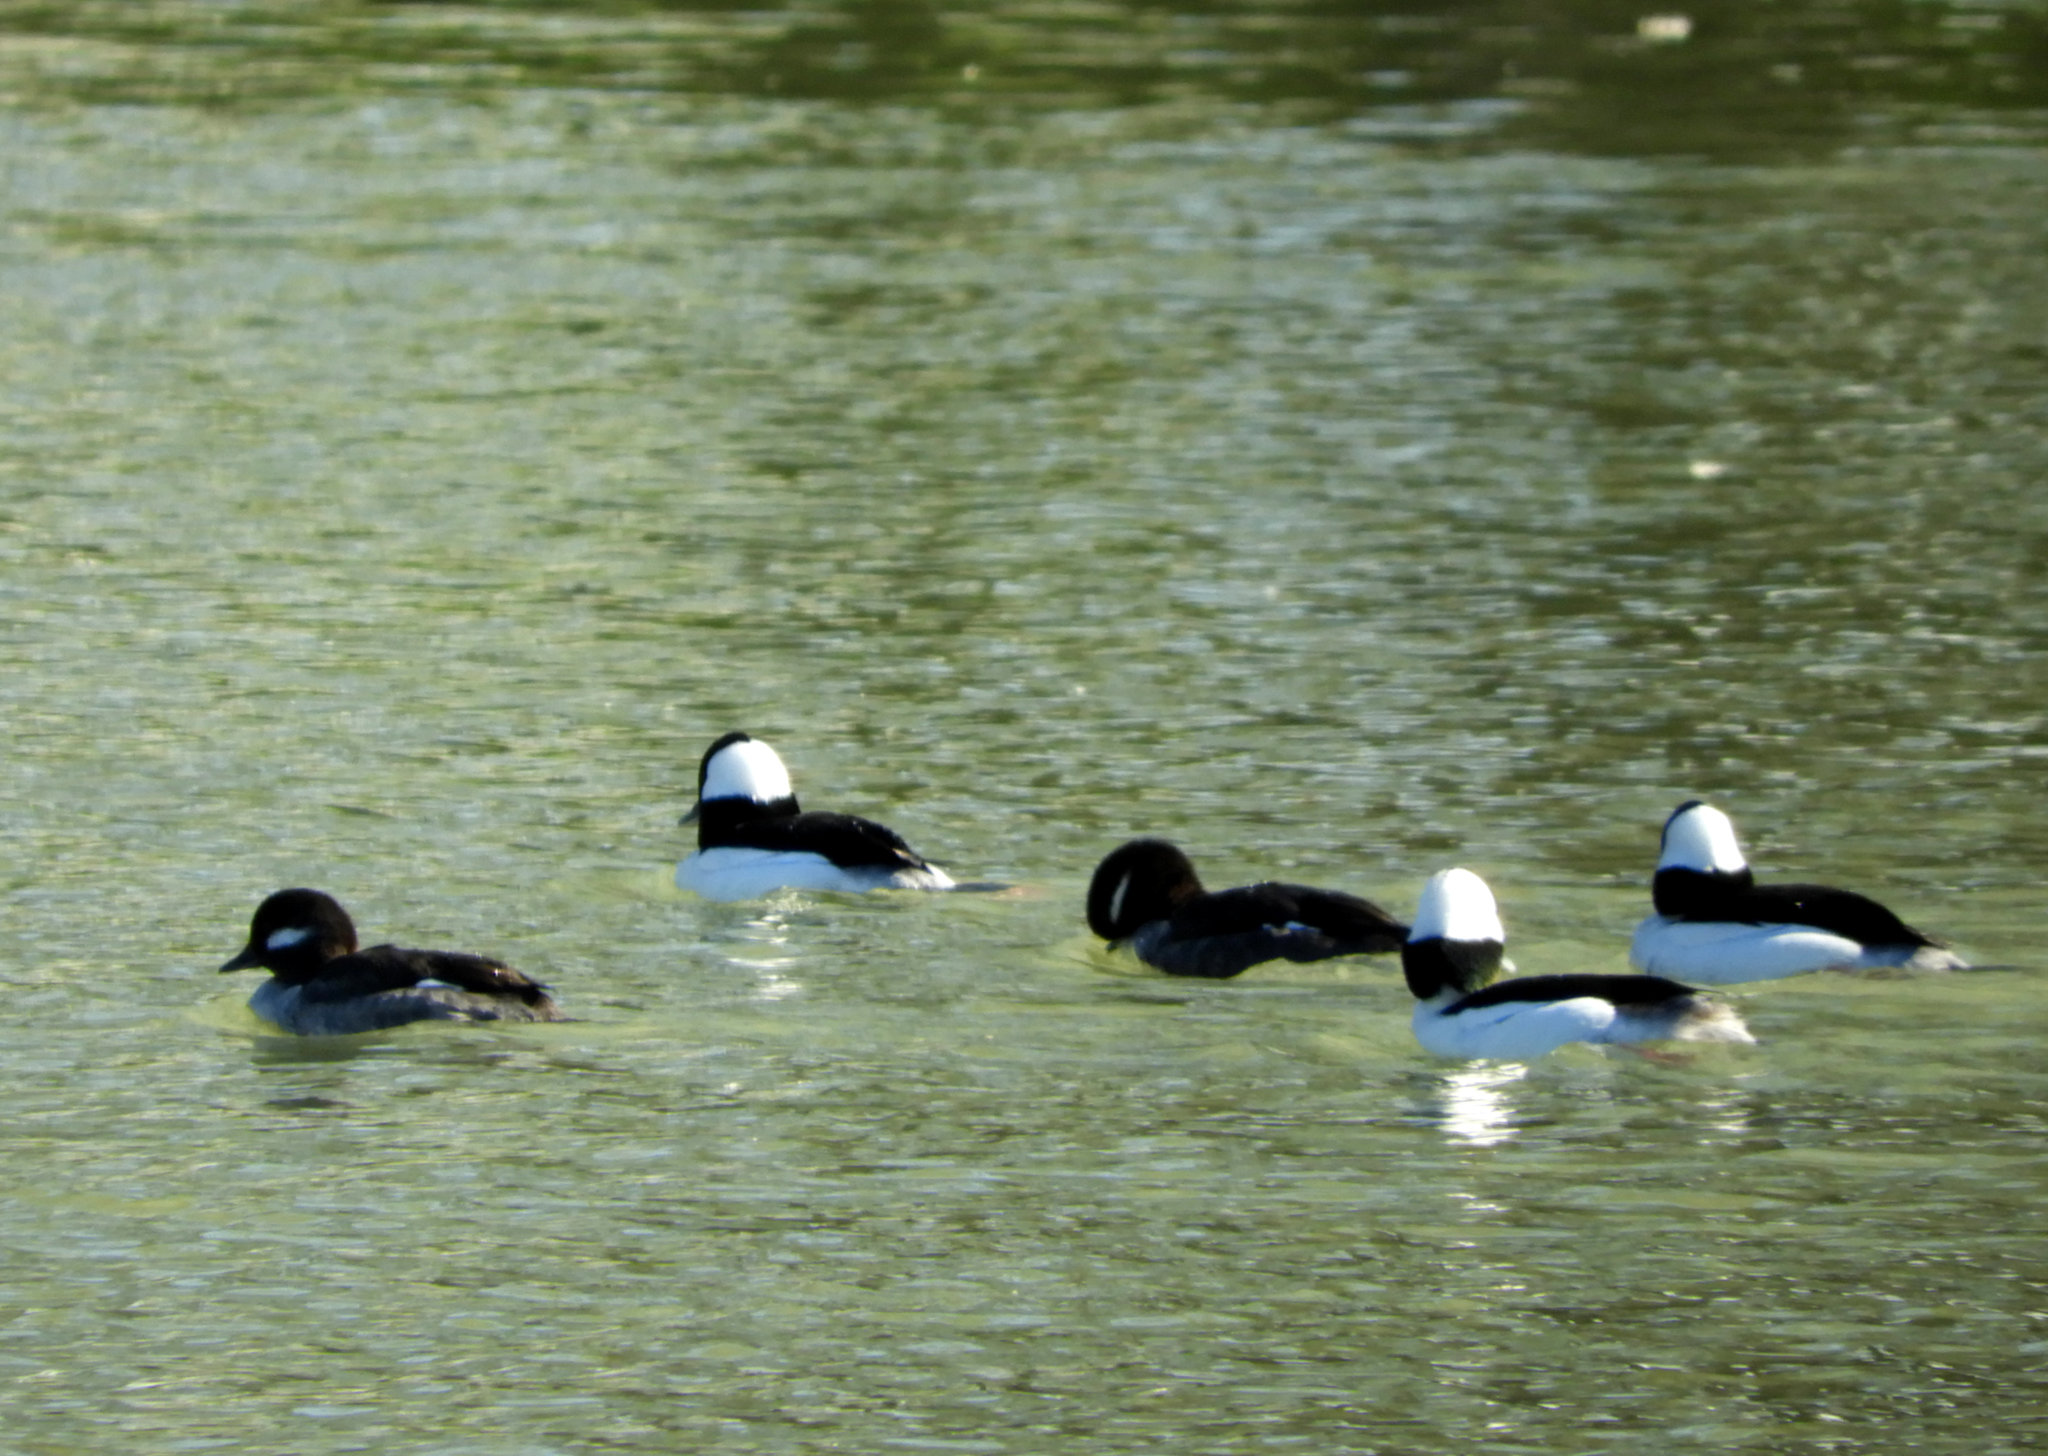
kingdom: Animalia
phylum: Chordata
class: Aves
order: Anseriformes
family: Anatidae
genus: Bucephala
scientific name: Bucephala albeola
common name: Bufflehead
